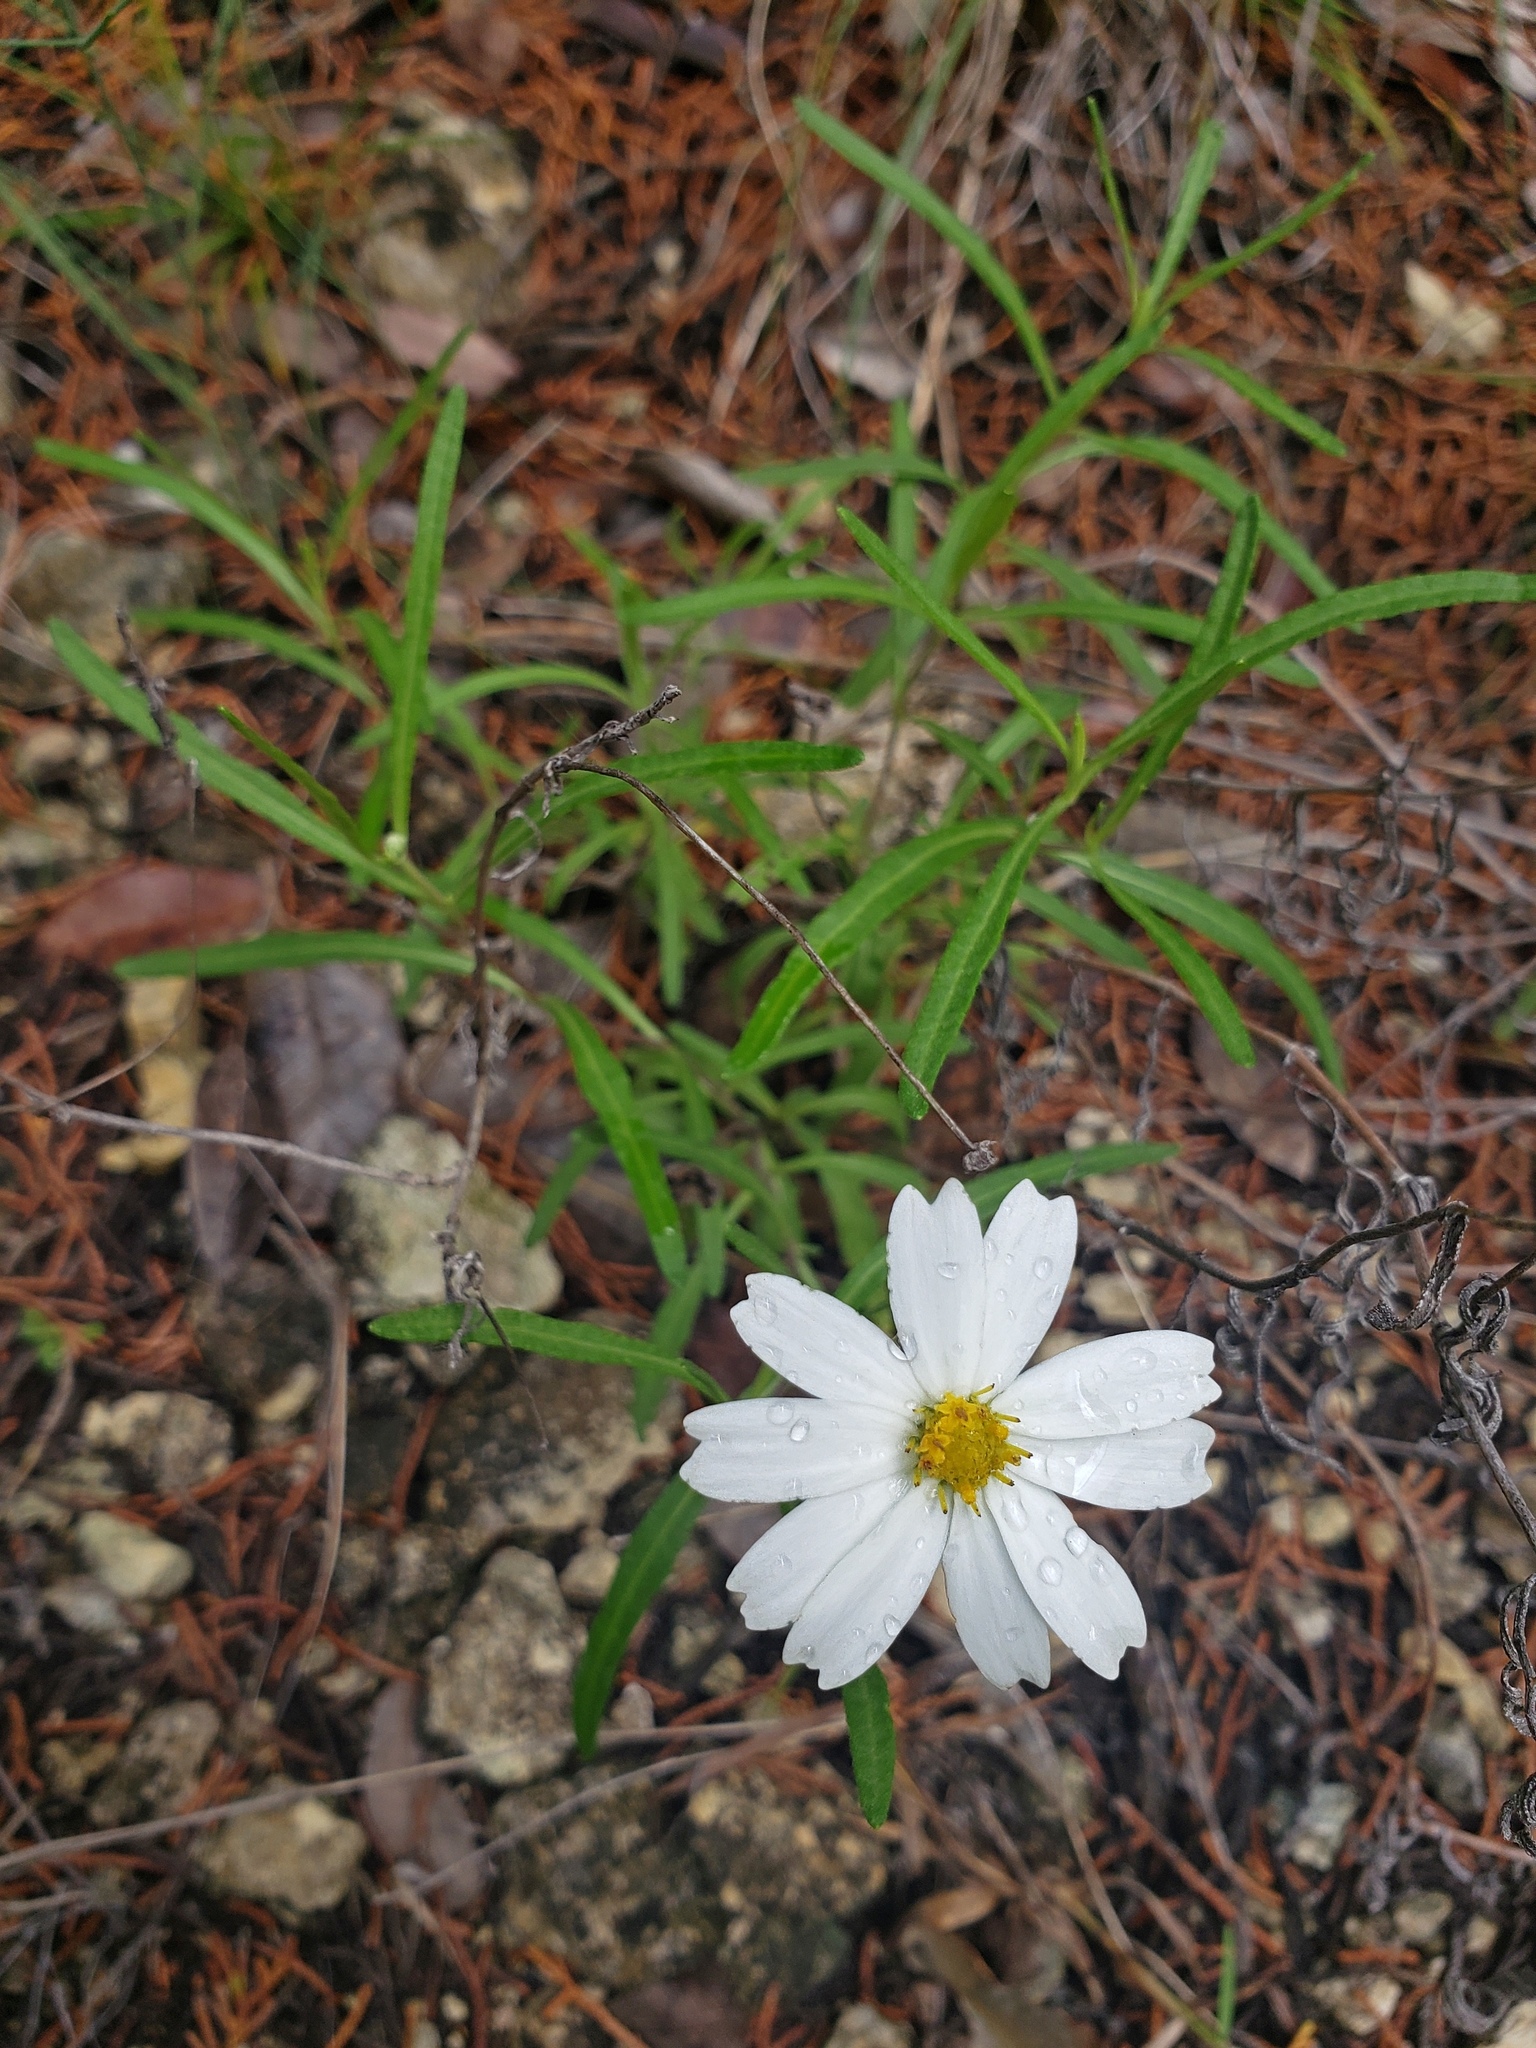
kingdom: Plantae
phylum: Tracheophyta
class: Magnoliopsida
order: Asterales
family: Asteraceae
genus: Melampodium
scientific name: Melampodium leucanthum
